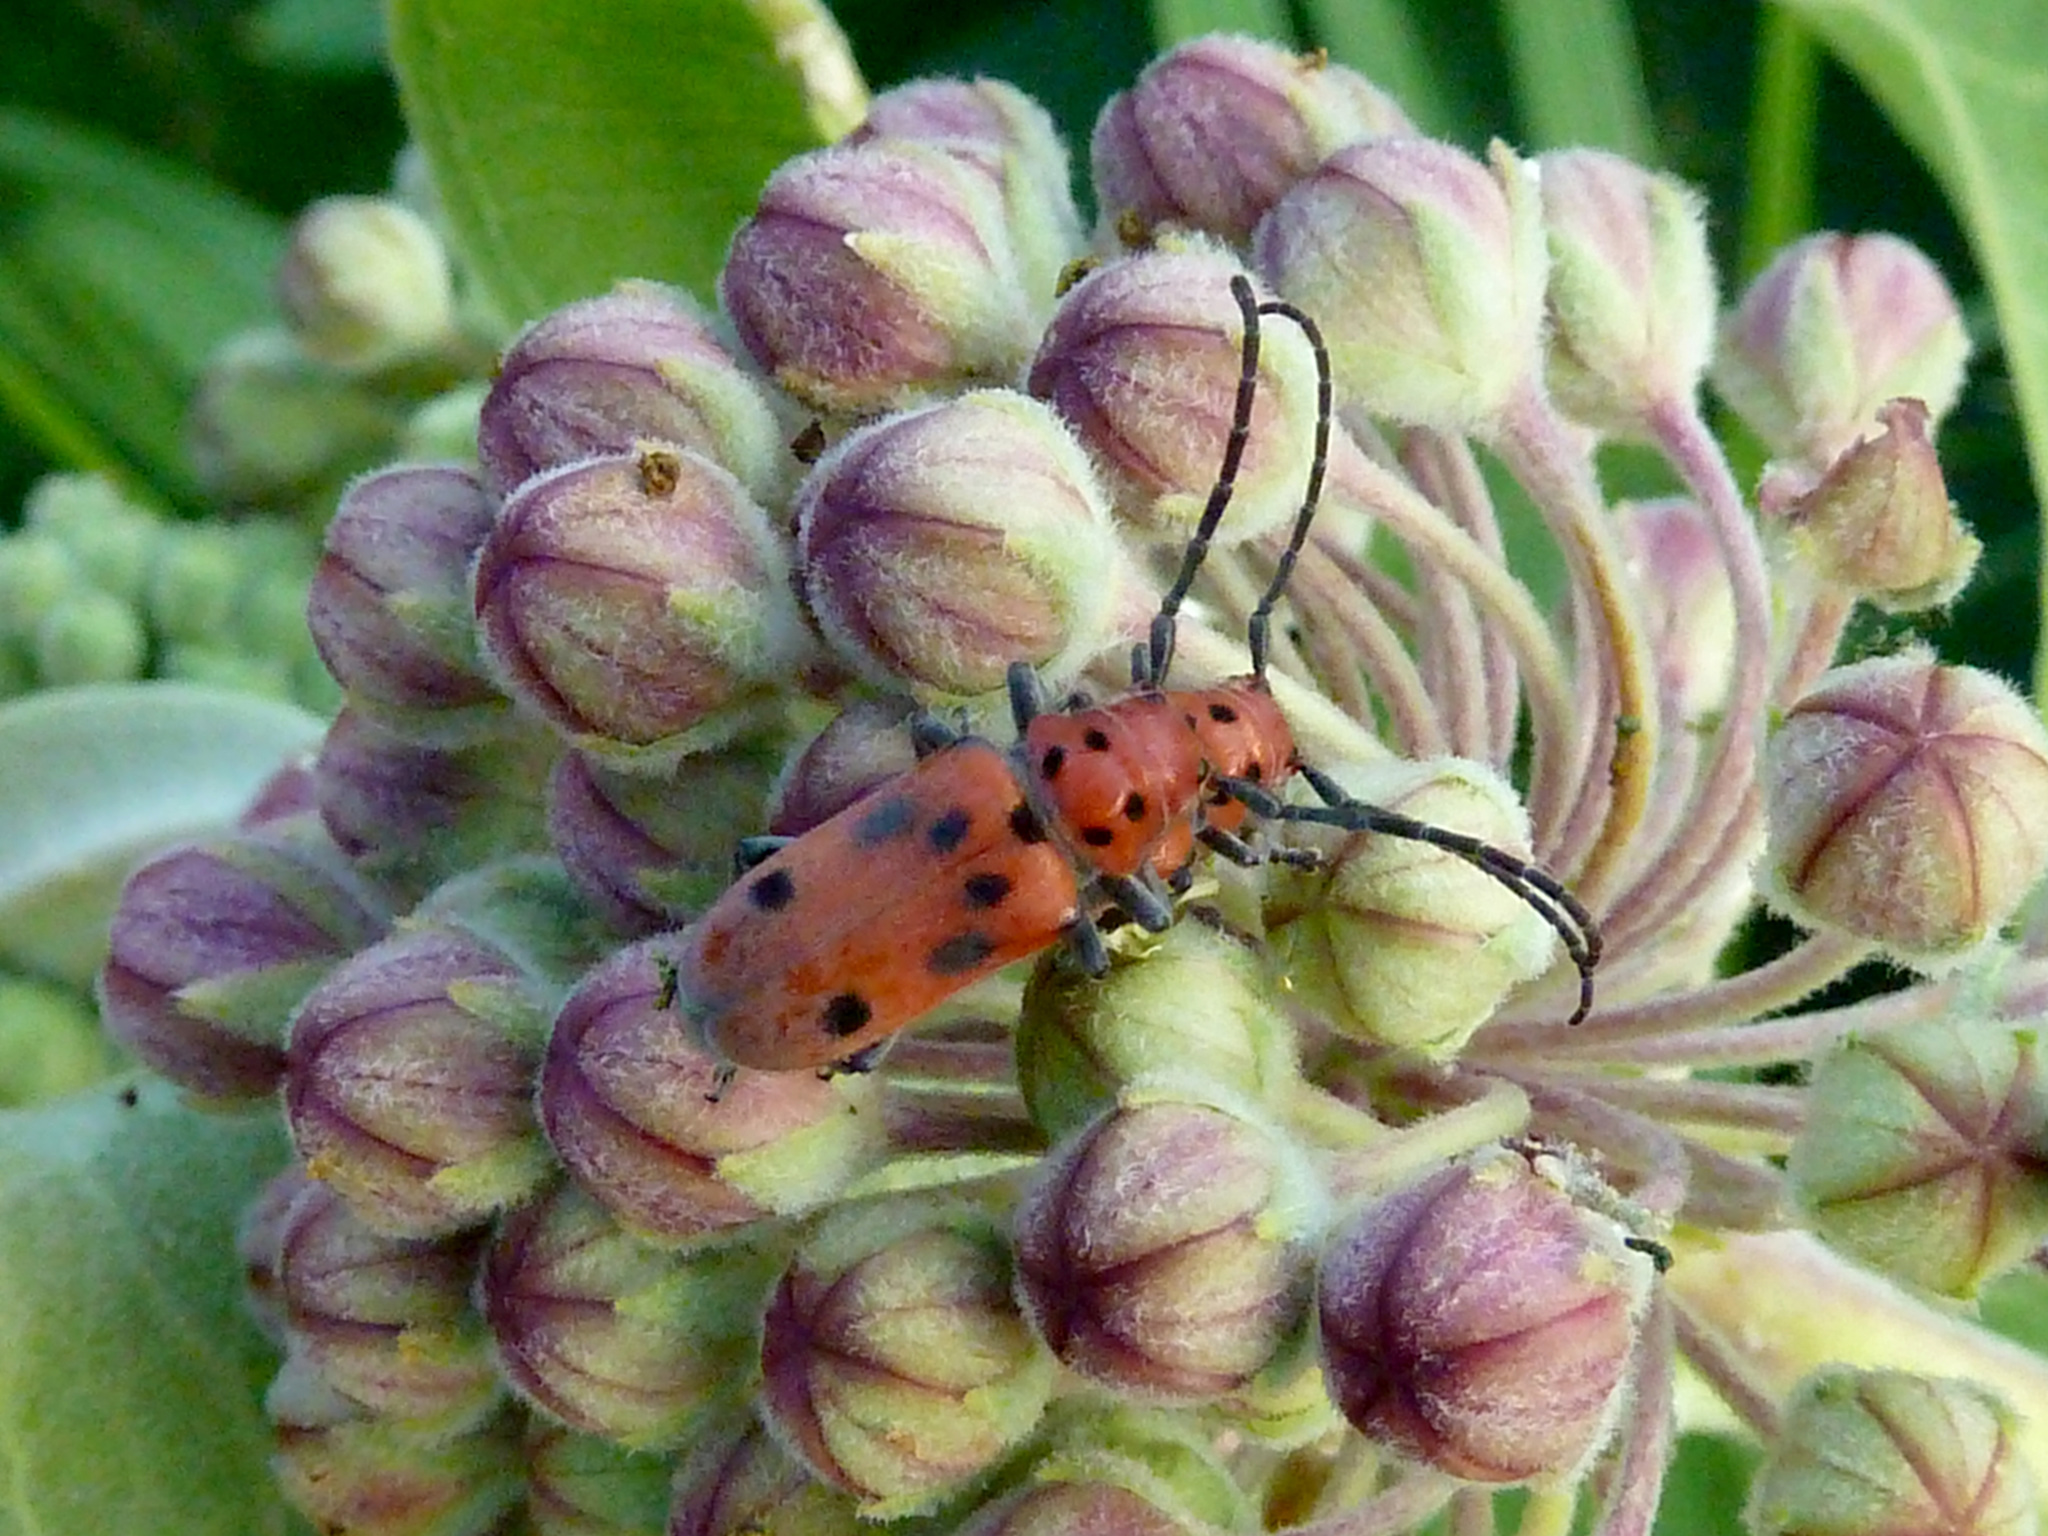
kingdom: Animalia
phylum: Arthropoda
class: Insecta
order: Coleoptera
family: Cerambycidae
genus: Tetraopes
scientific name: Tetraopes tetrophthalmus
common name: Red milkweed beetle
